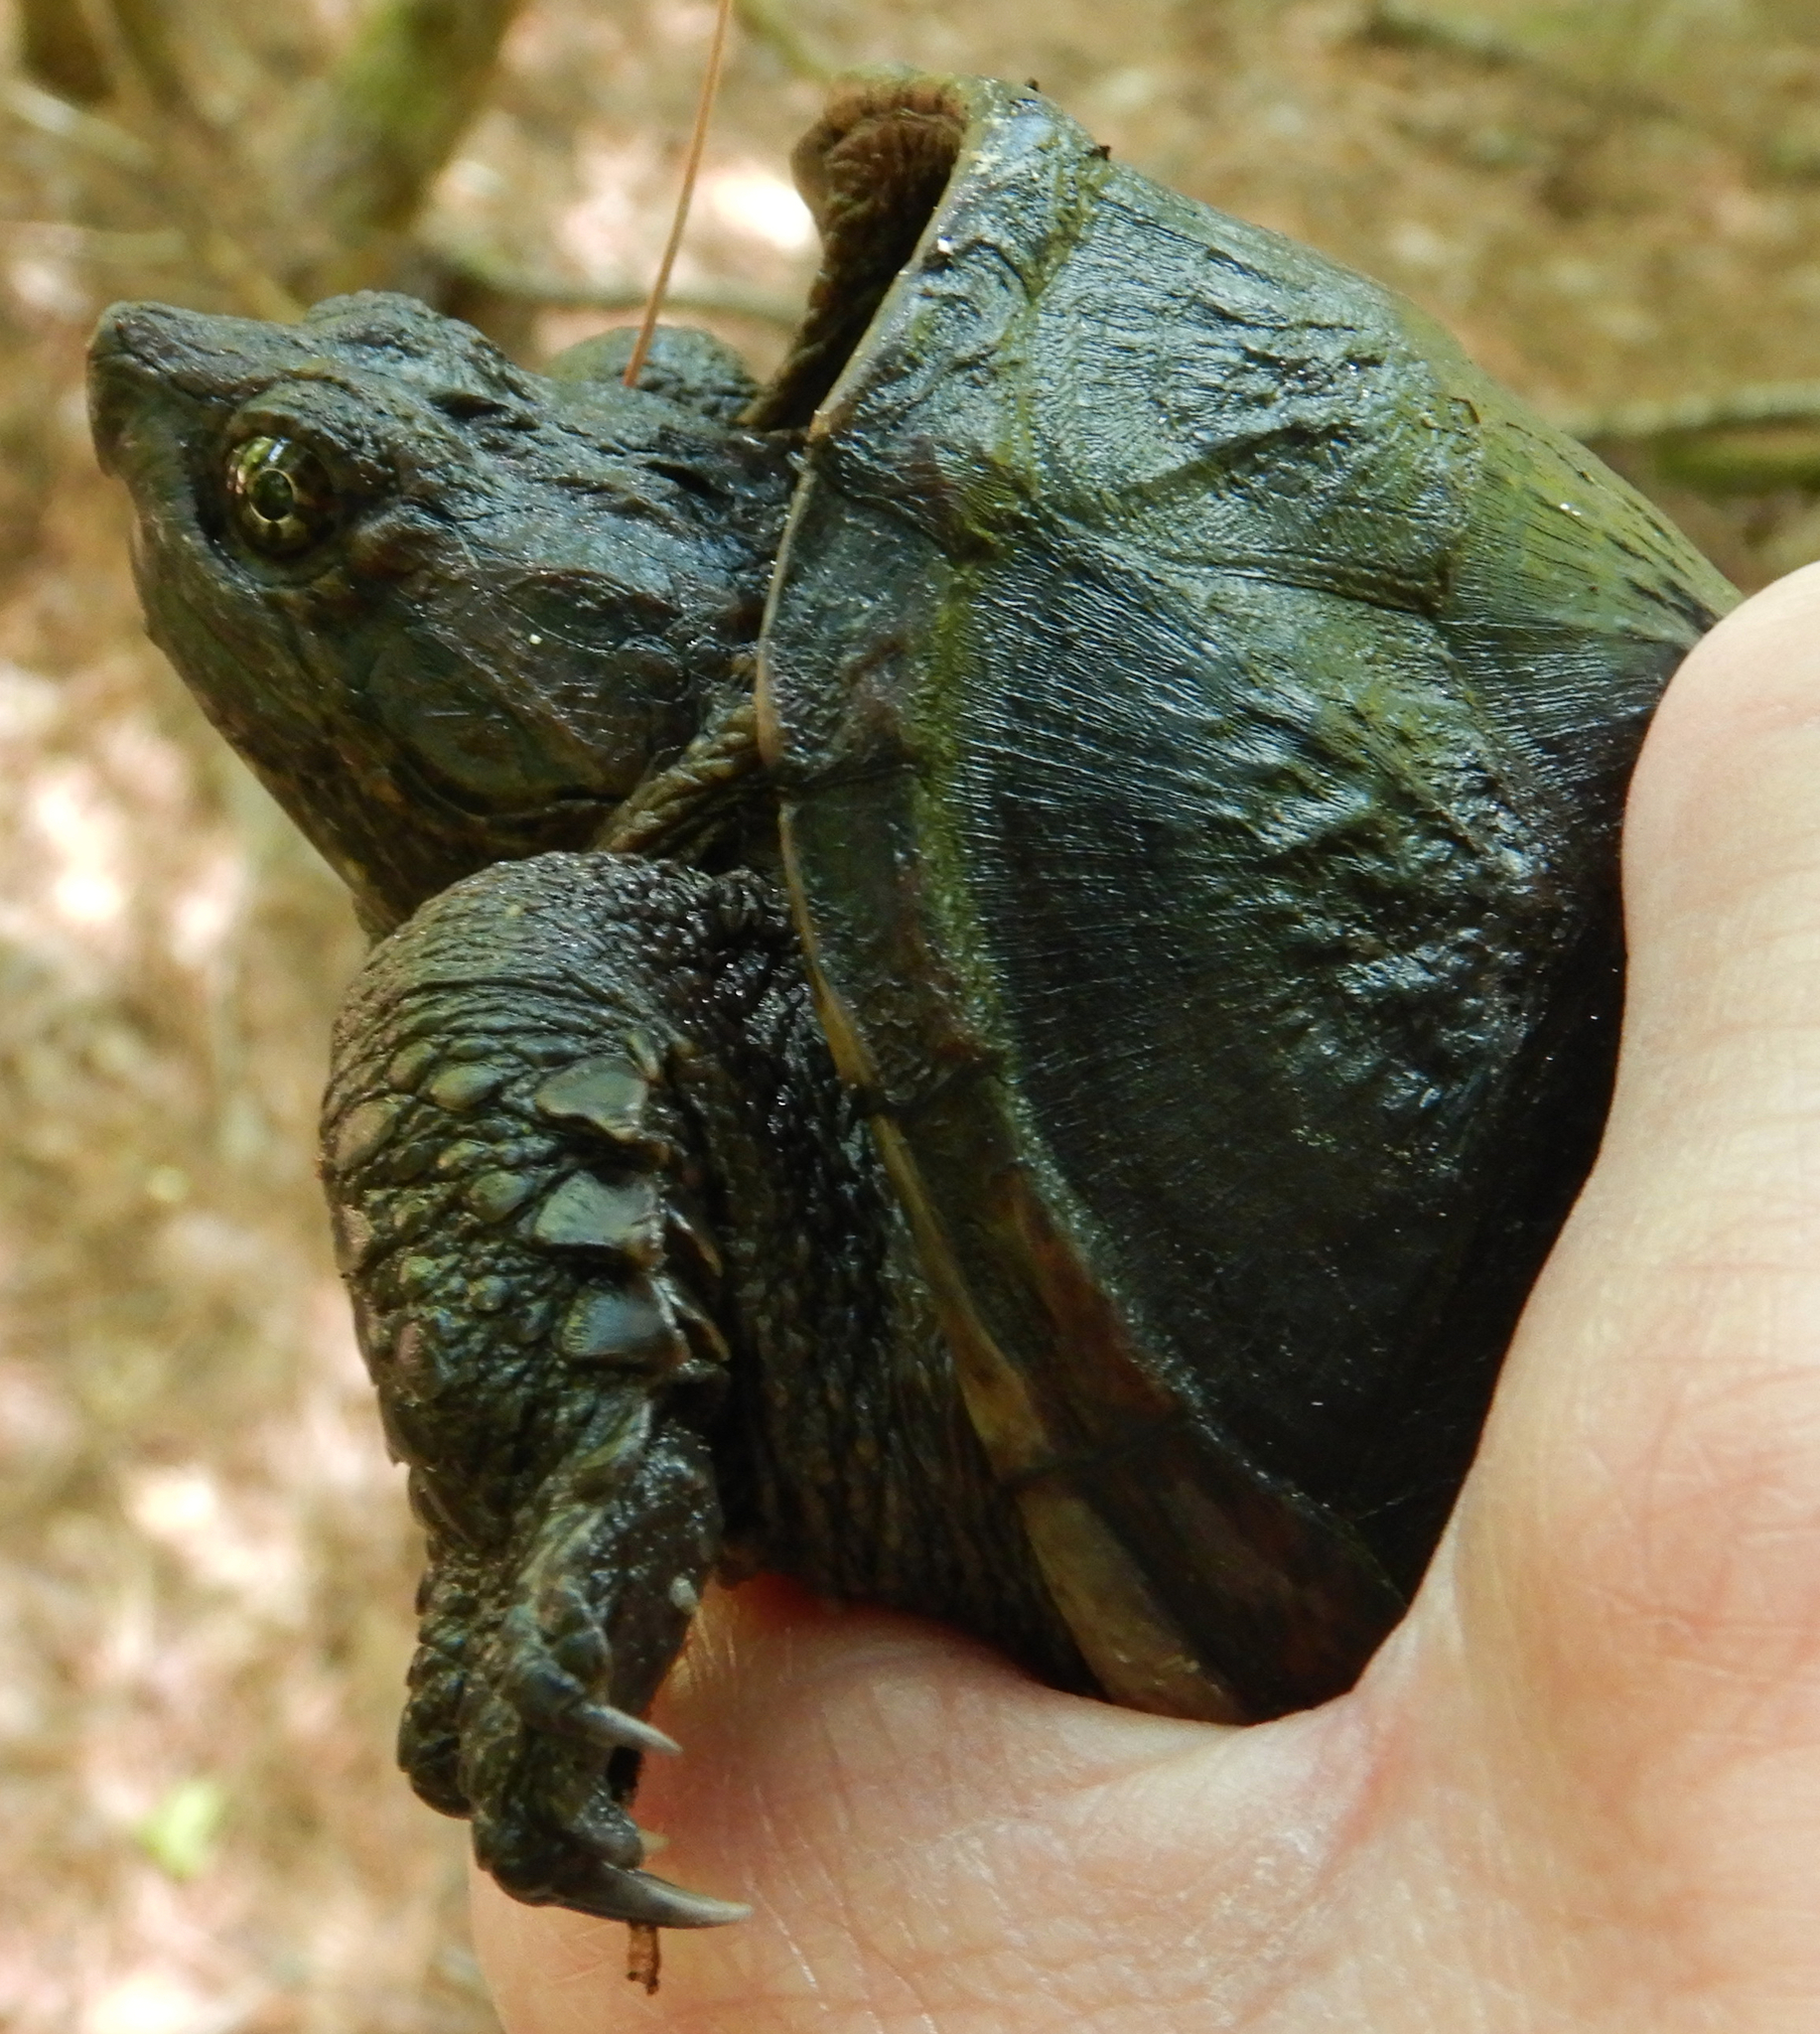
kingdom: Animalia
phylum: Chordata
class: Testudines
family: Chelydridae
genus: Chelydra
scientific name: Chelydra serpentina
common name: Common snapping turtle
